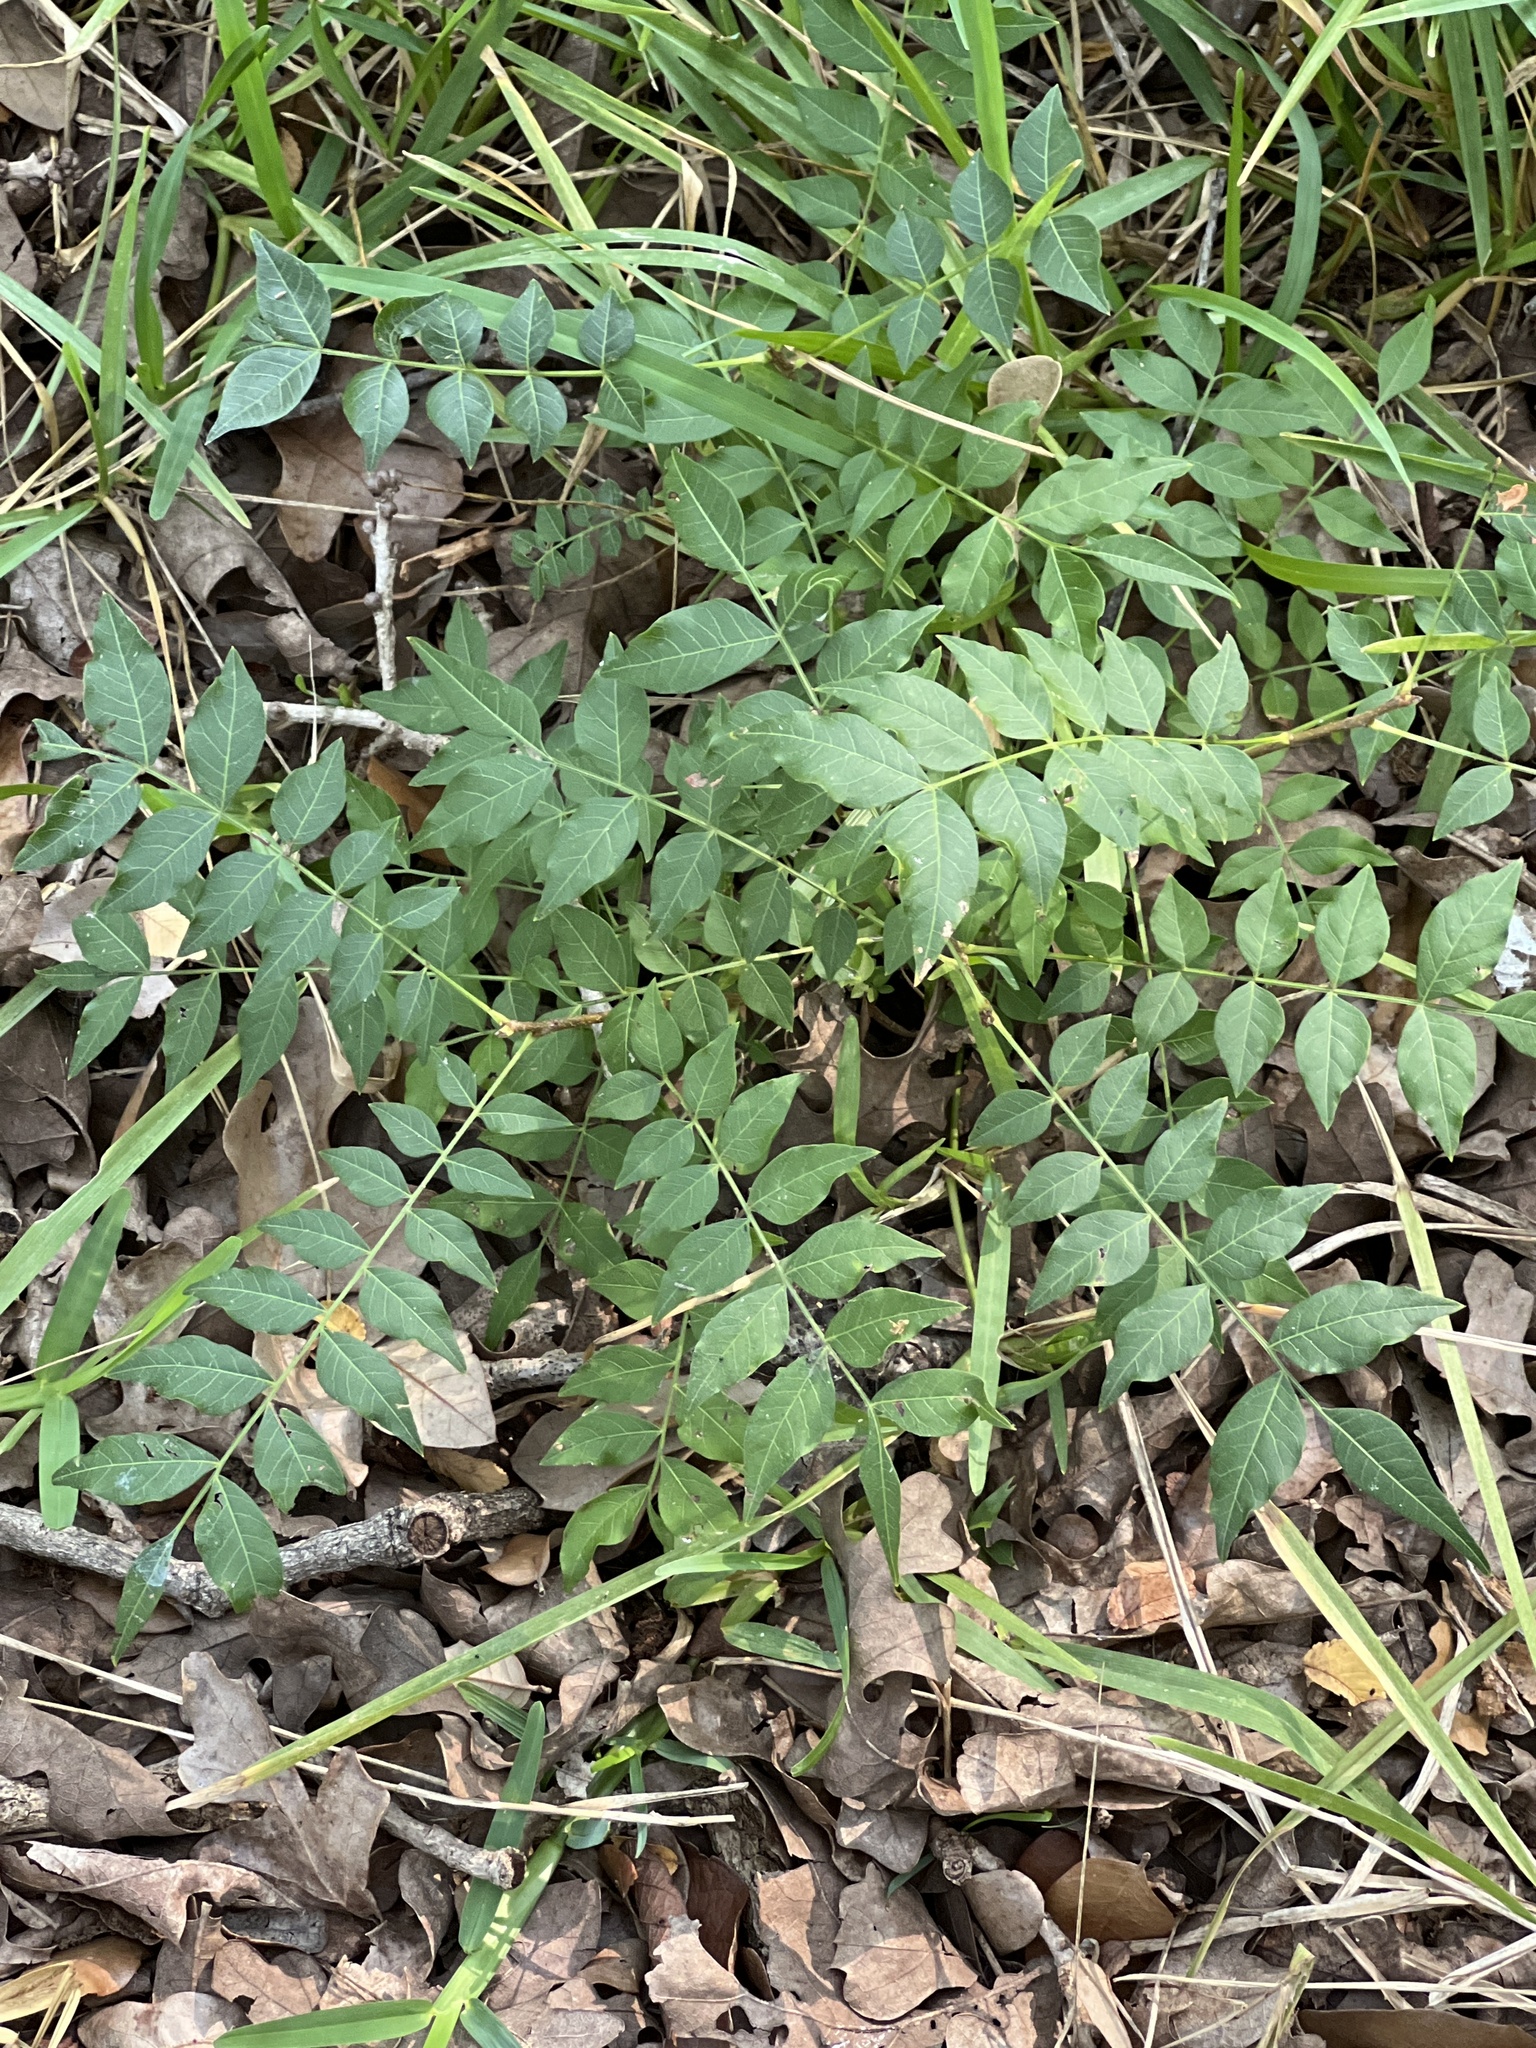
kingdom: Plantae
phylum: Tracheophyta
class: Magnoliopsida
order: Sapindales
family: Anacardiaceae
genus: Pistacia
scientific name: Pistacia chinensis
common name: Chinese pistache
